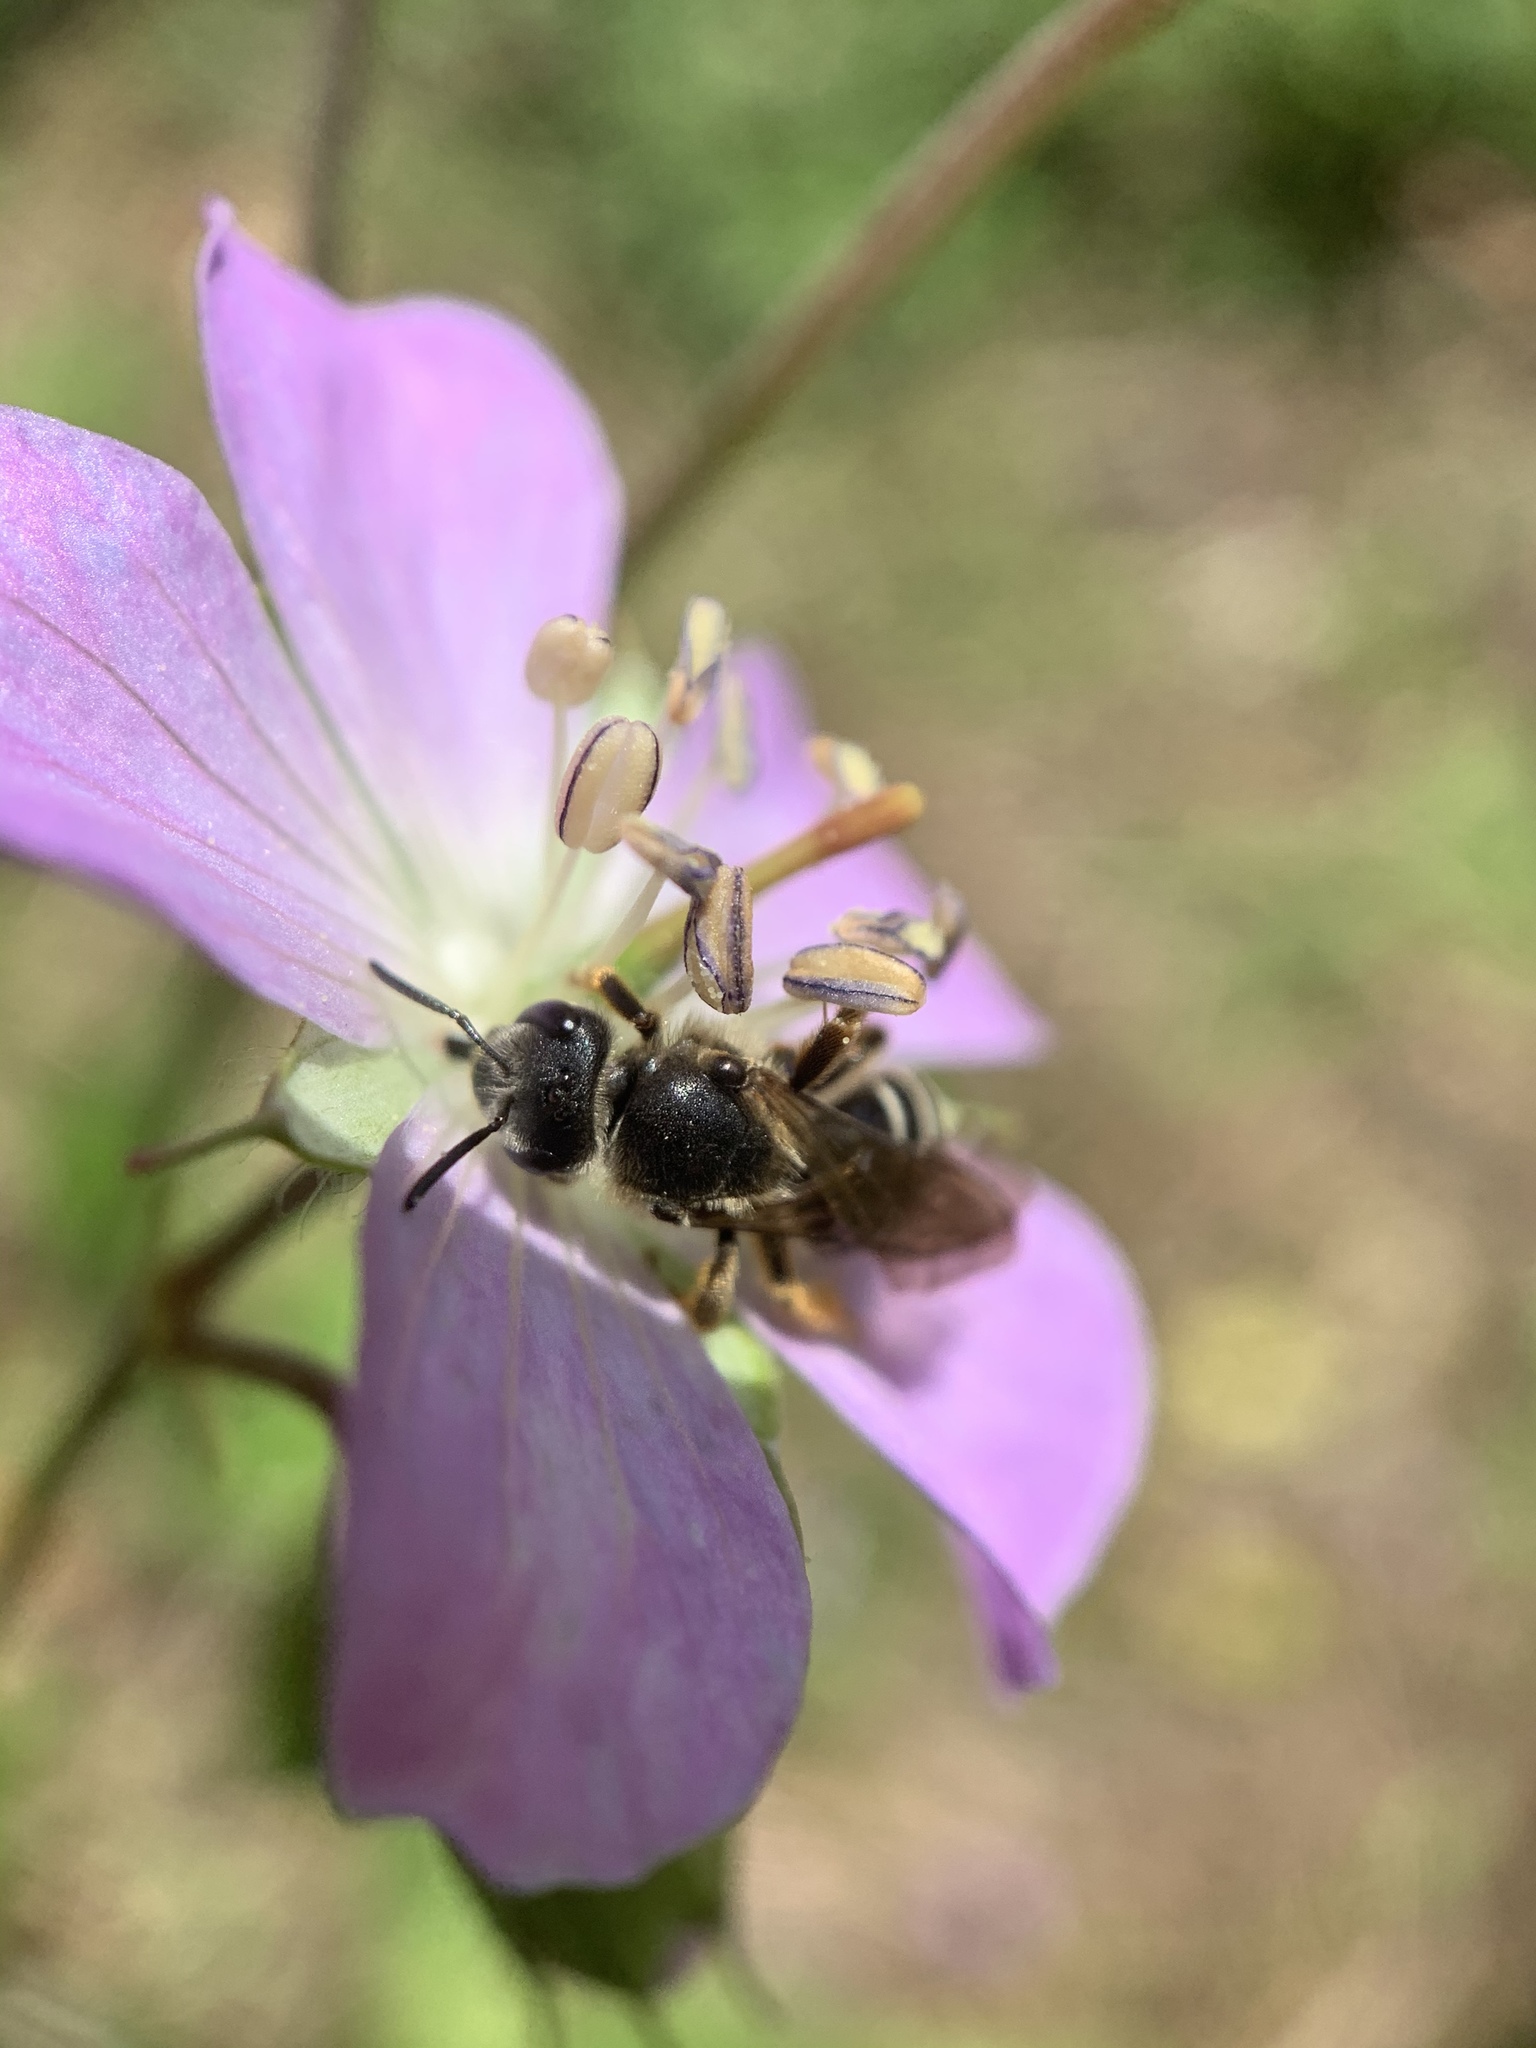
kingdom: Animalia
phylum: Arthropoda
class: Insecta
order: Hymenoptera
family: Halictidae
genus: Halictus
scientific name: Halictus rubicundus
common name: Orange-legged furrow bee
